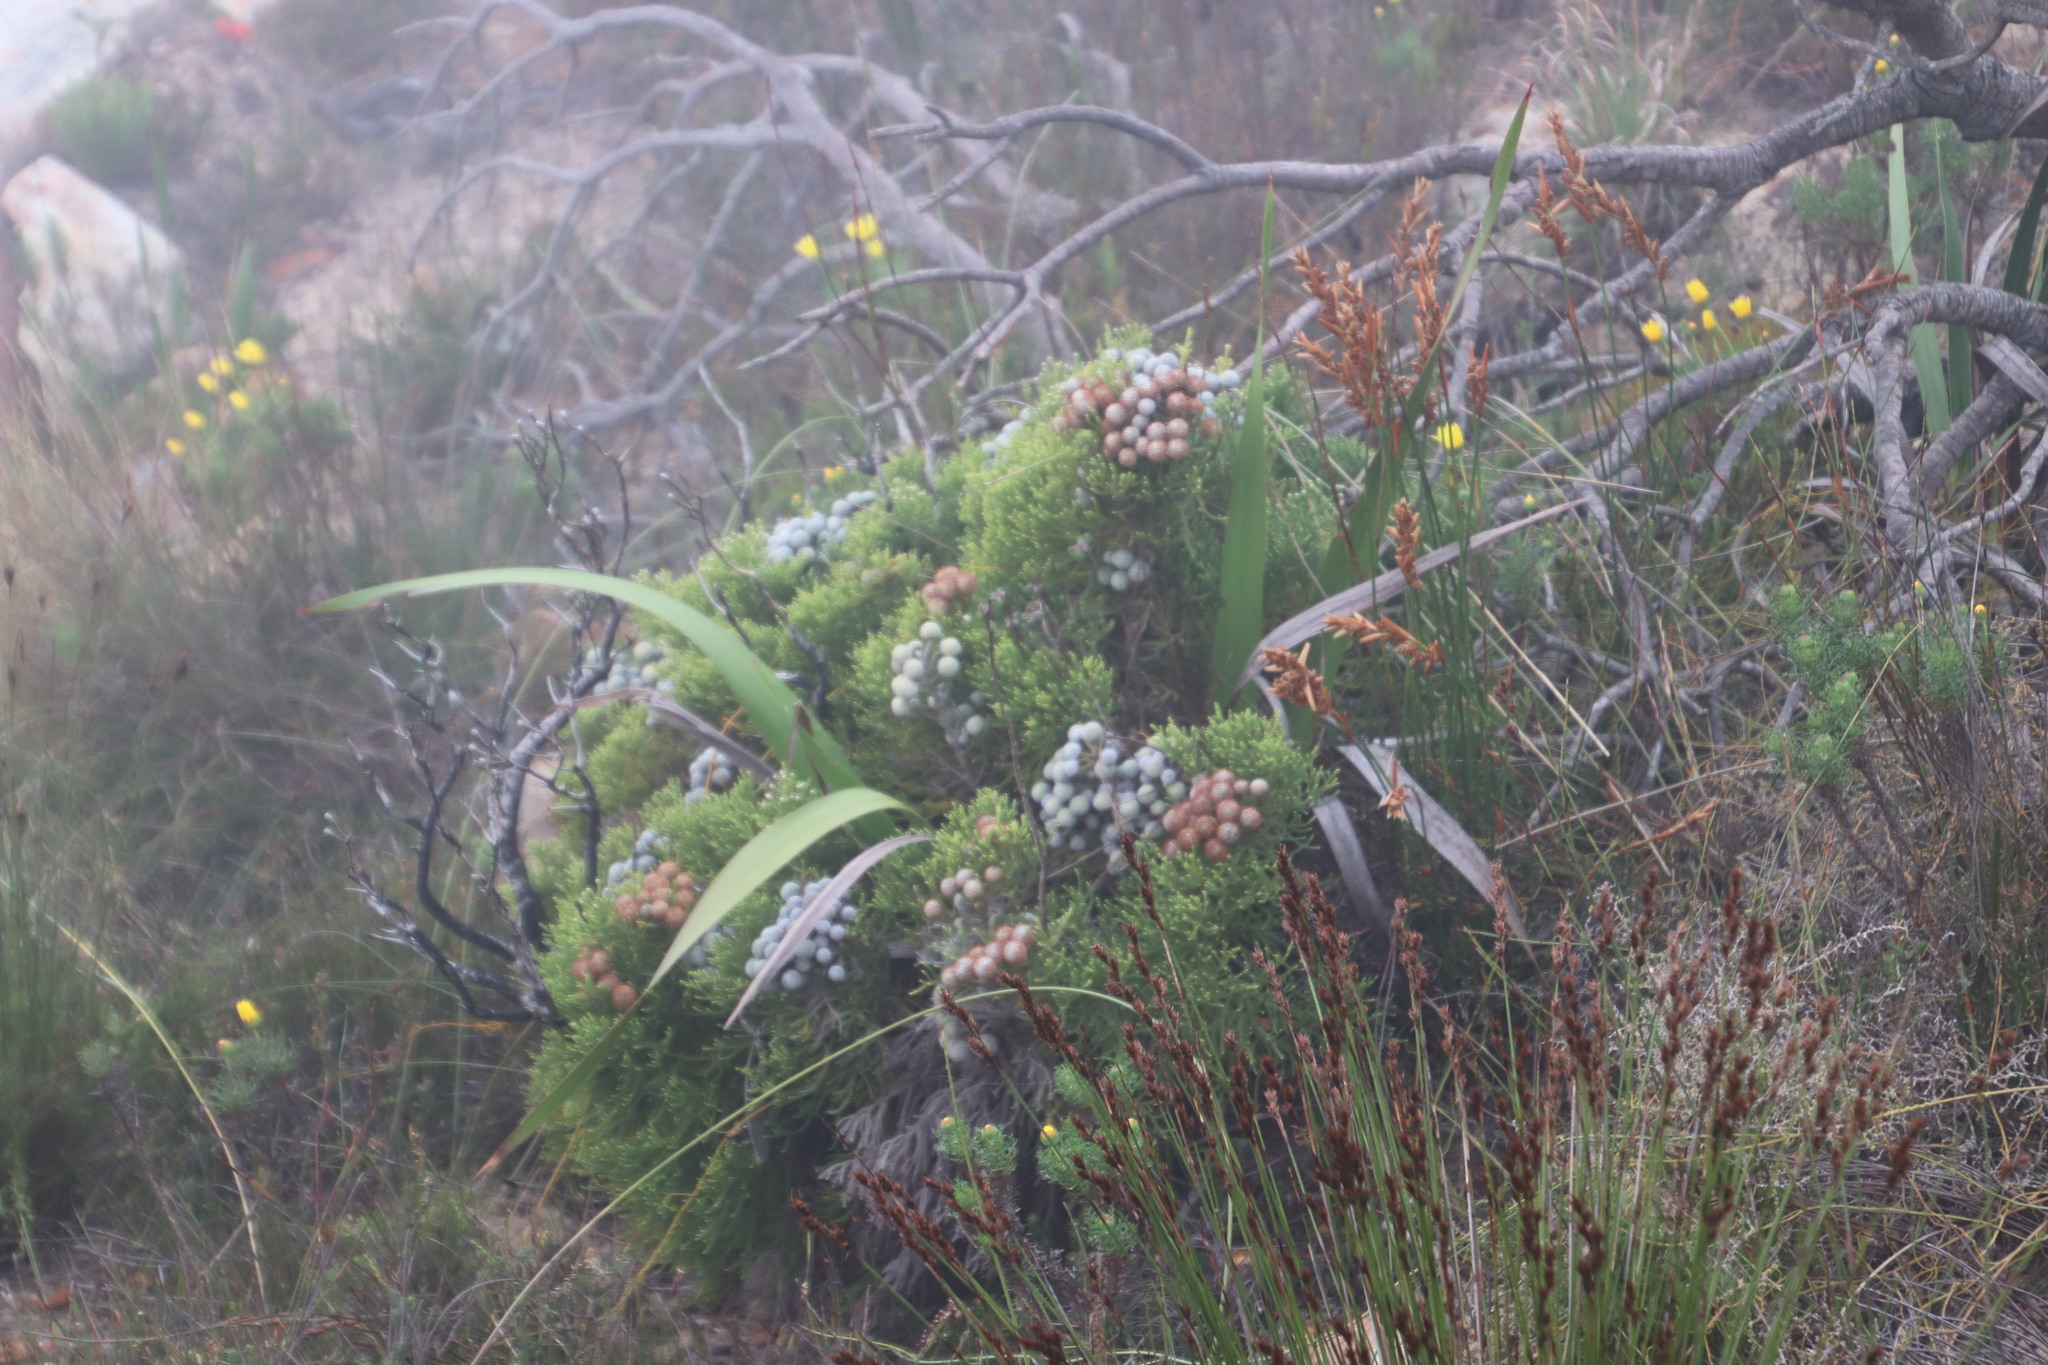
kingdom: Plantae
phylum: Tracheophyta
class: Magnoliopsida
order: Bruniales
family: Bruniaceae
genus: Brunia
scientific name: Brunia noduliflora
